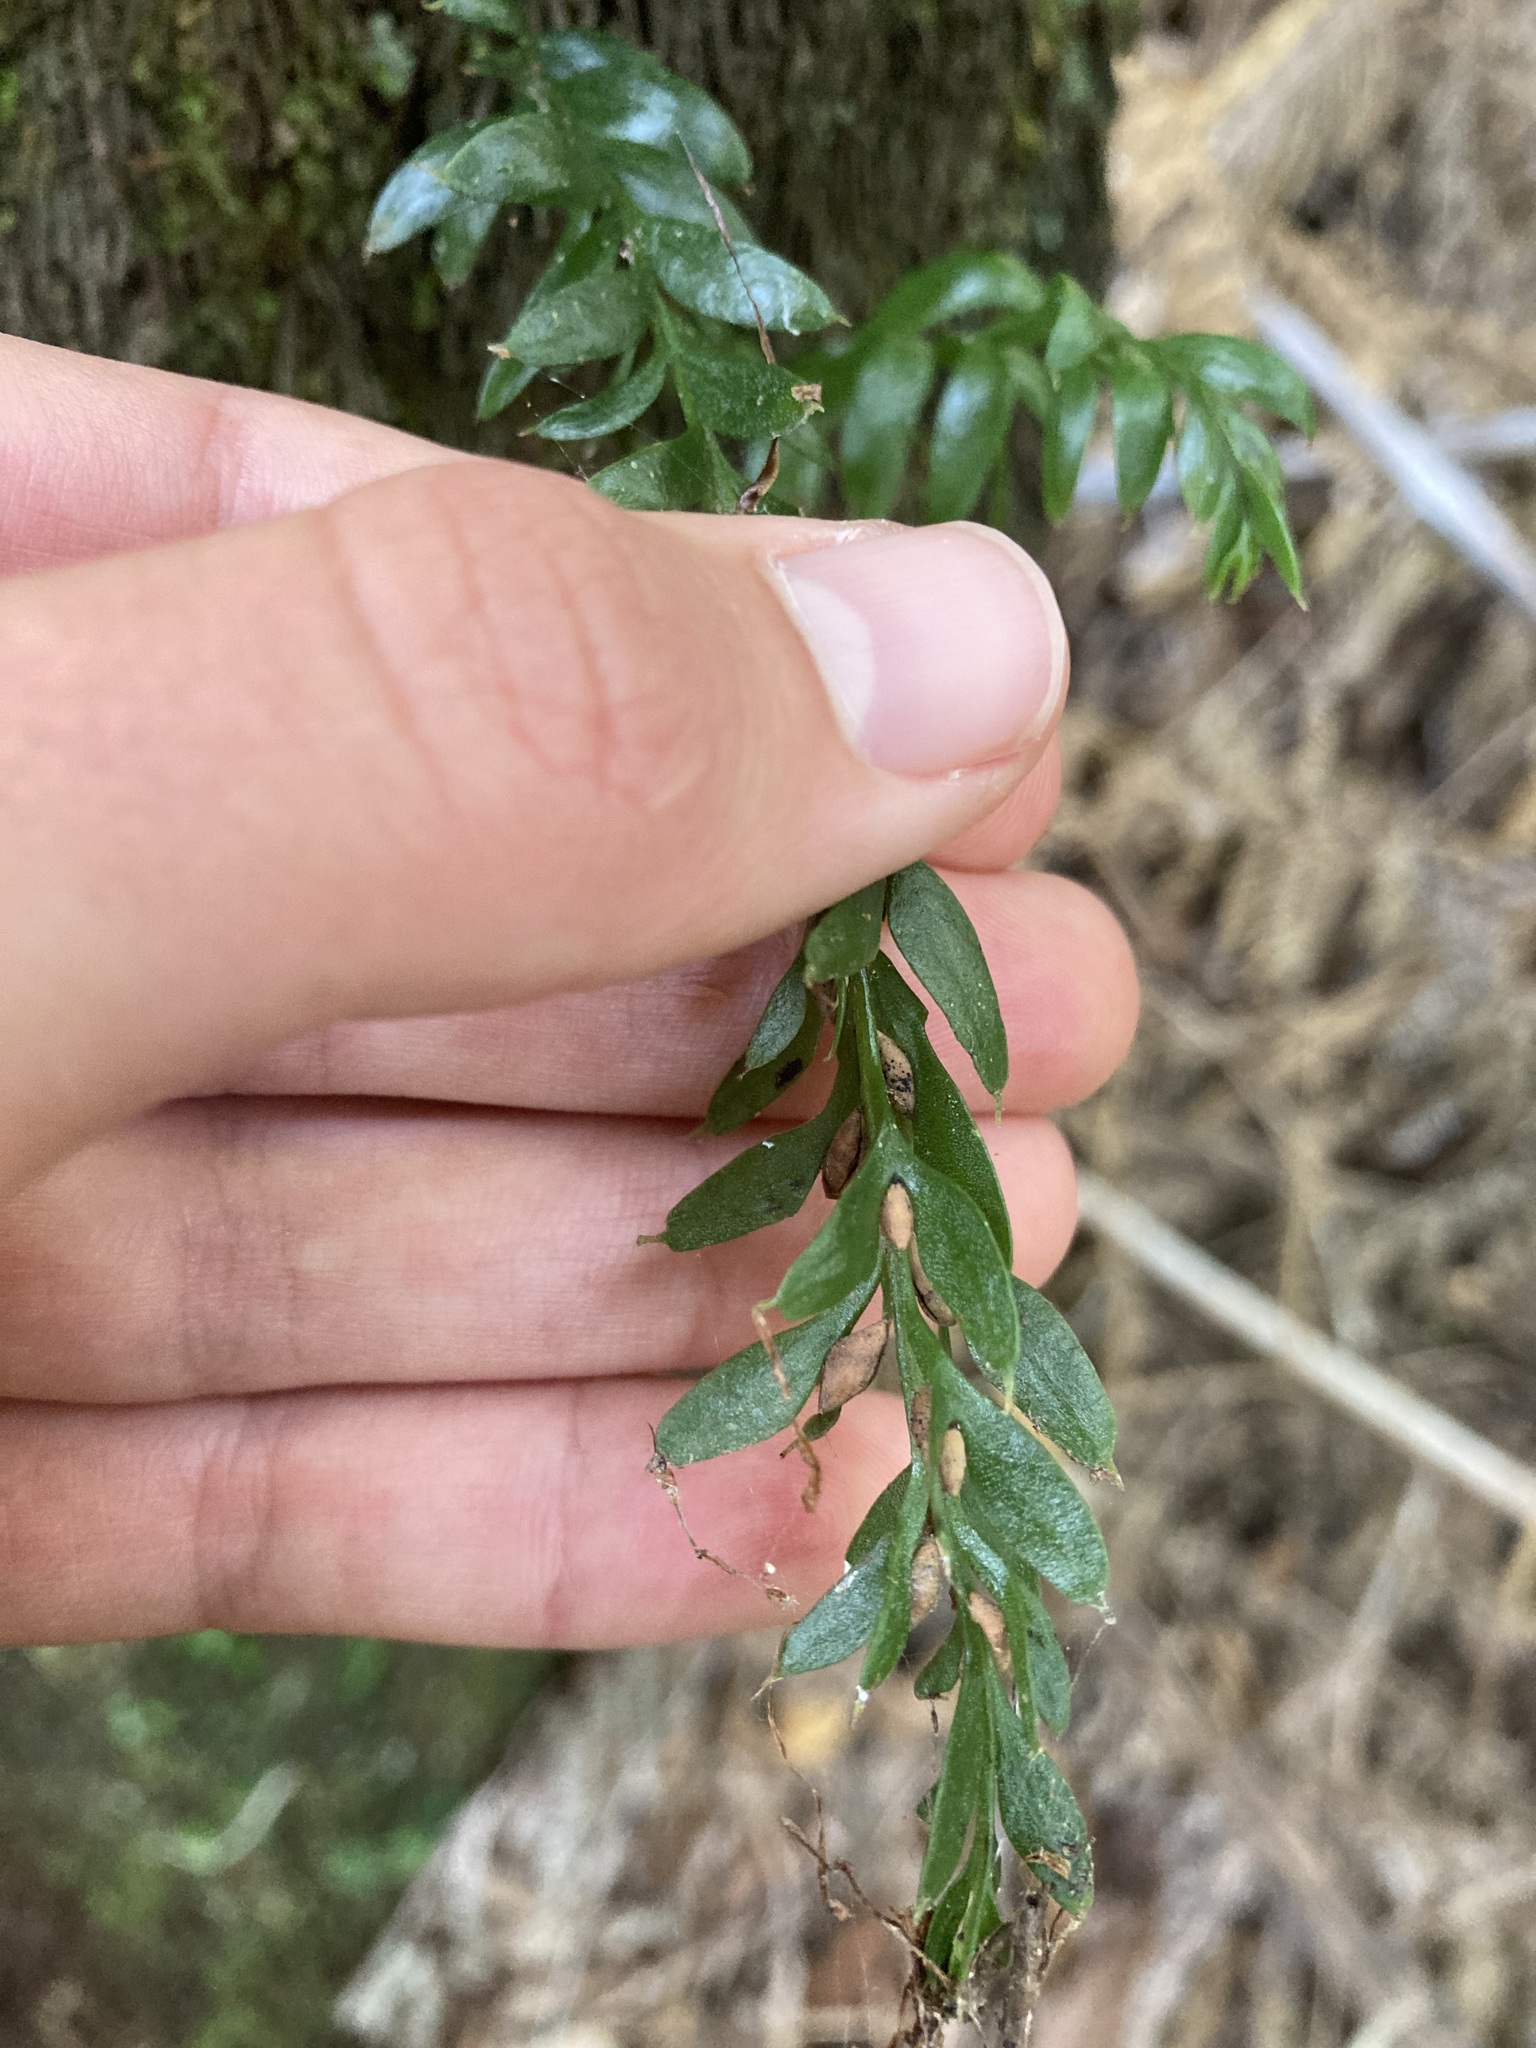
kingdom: Plantae
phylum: Tracheophyta
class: Polypodiopsida
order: Psilotales
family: Psilotaceae
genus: Tmesipteris
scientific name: Tmesipteris tannensis
